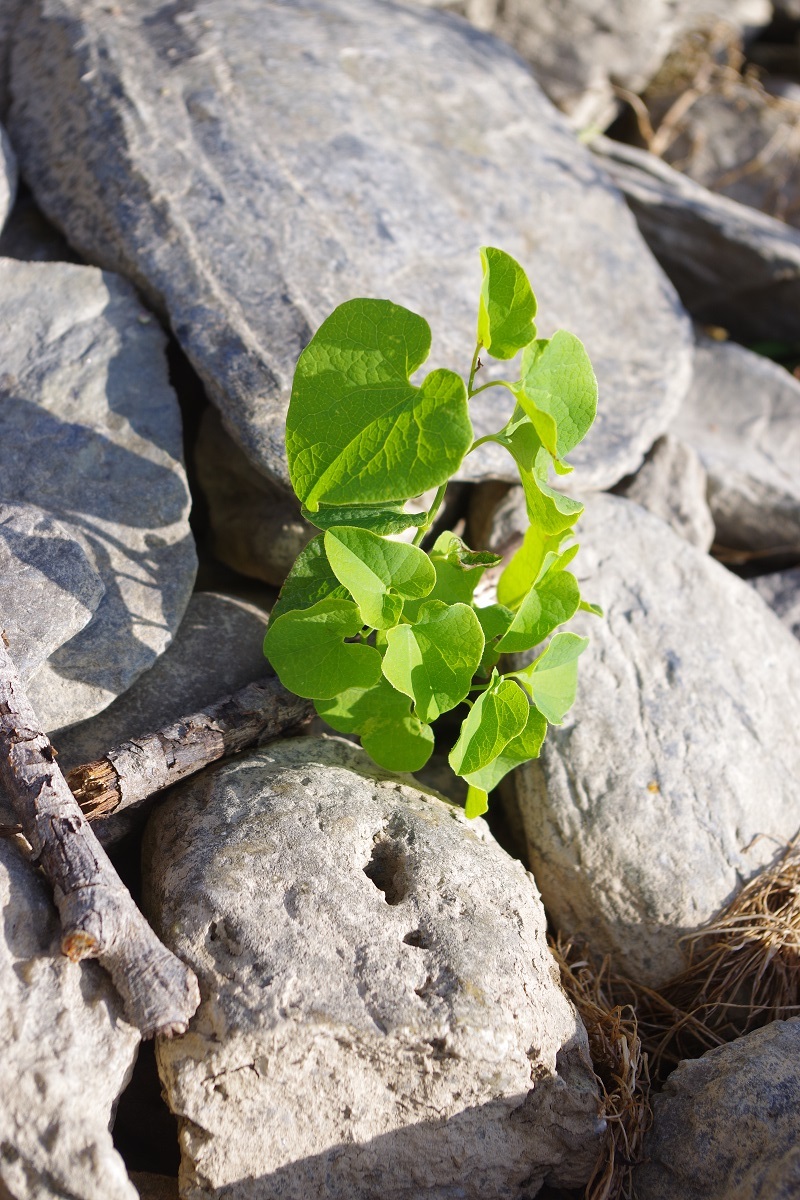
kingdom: Plantae
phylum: Tracheophyta
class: Magnoliopsida
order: Piperales
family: Aristolochiaceae
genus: Aristolochia
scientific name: Aristolochia clematitis
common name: Birthwort
